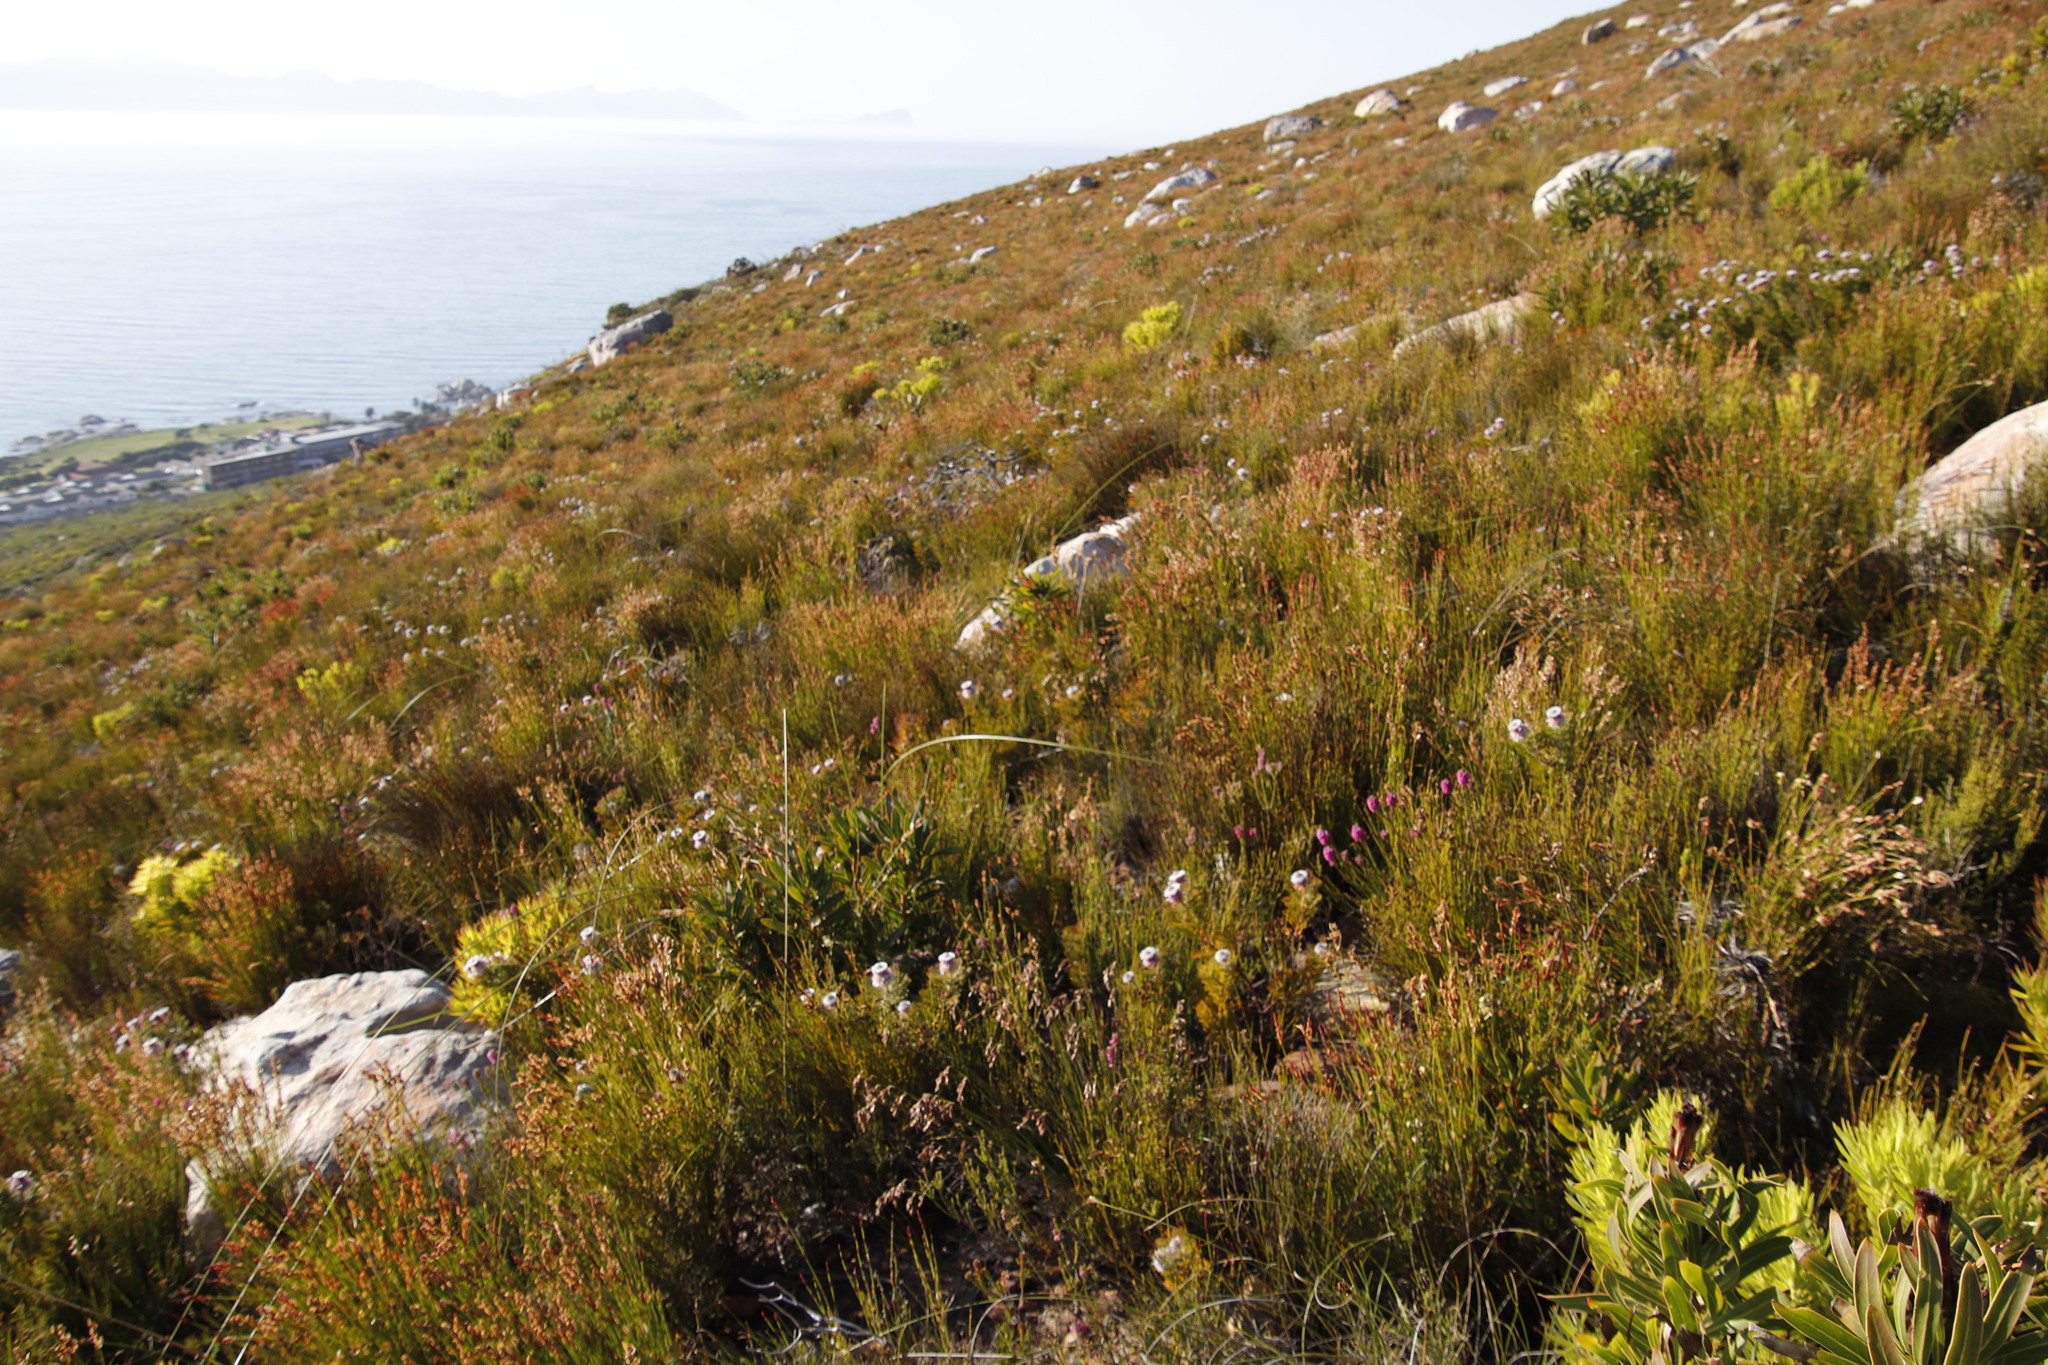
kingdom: Plantae
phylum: Tracheophyta
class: Magnoliopsida
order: Proteales
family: Proteaceae
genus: Serruria
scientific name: Serruria hirsuta
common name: Swartkops spiderhead
